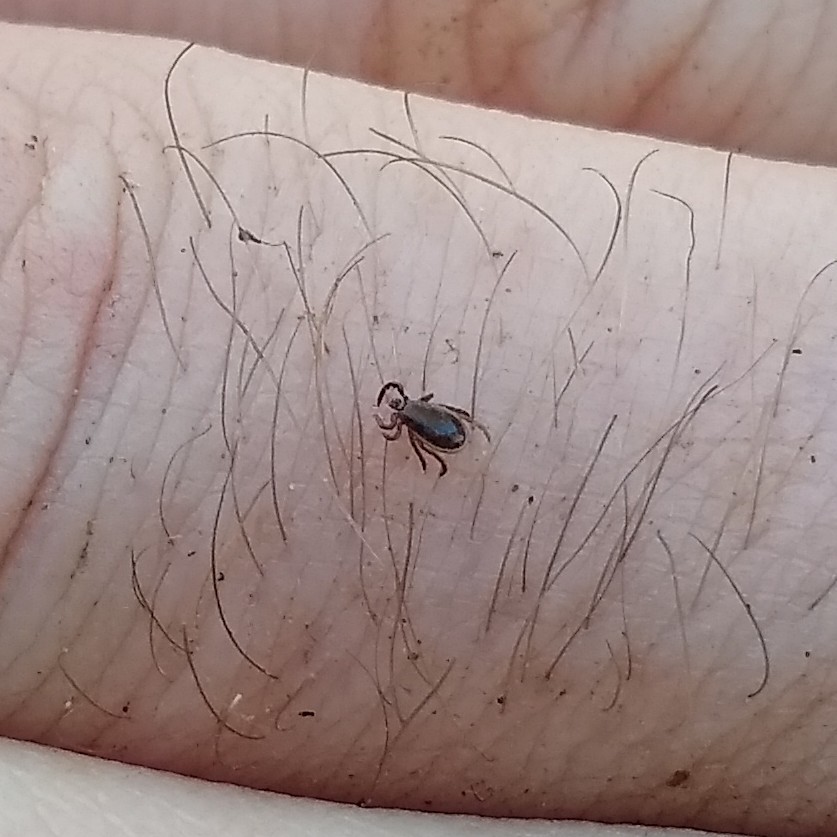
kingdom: Animalia
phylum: Arthropoda
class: Arachnida
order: Ixodida
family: Ixodidae
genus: Ixodes
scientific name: Ixodes scapularis
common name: Black legged tick
